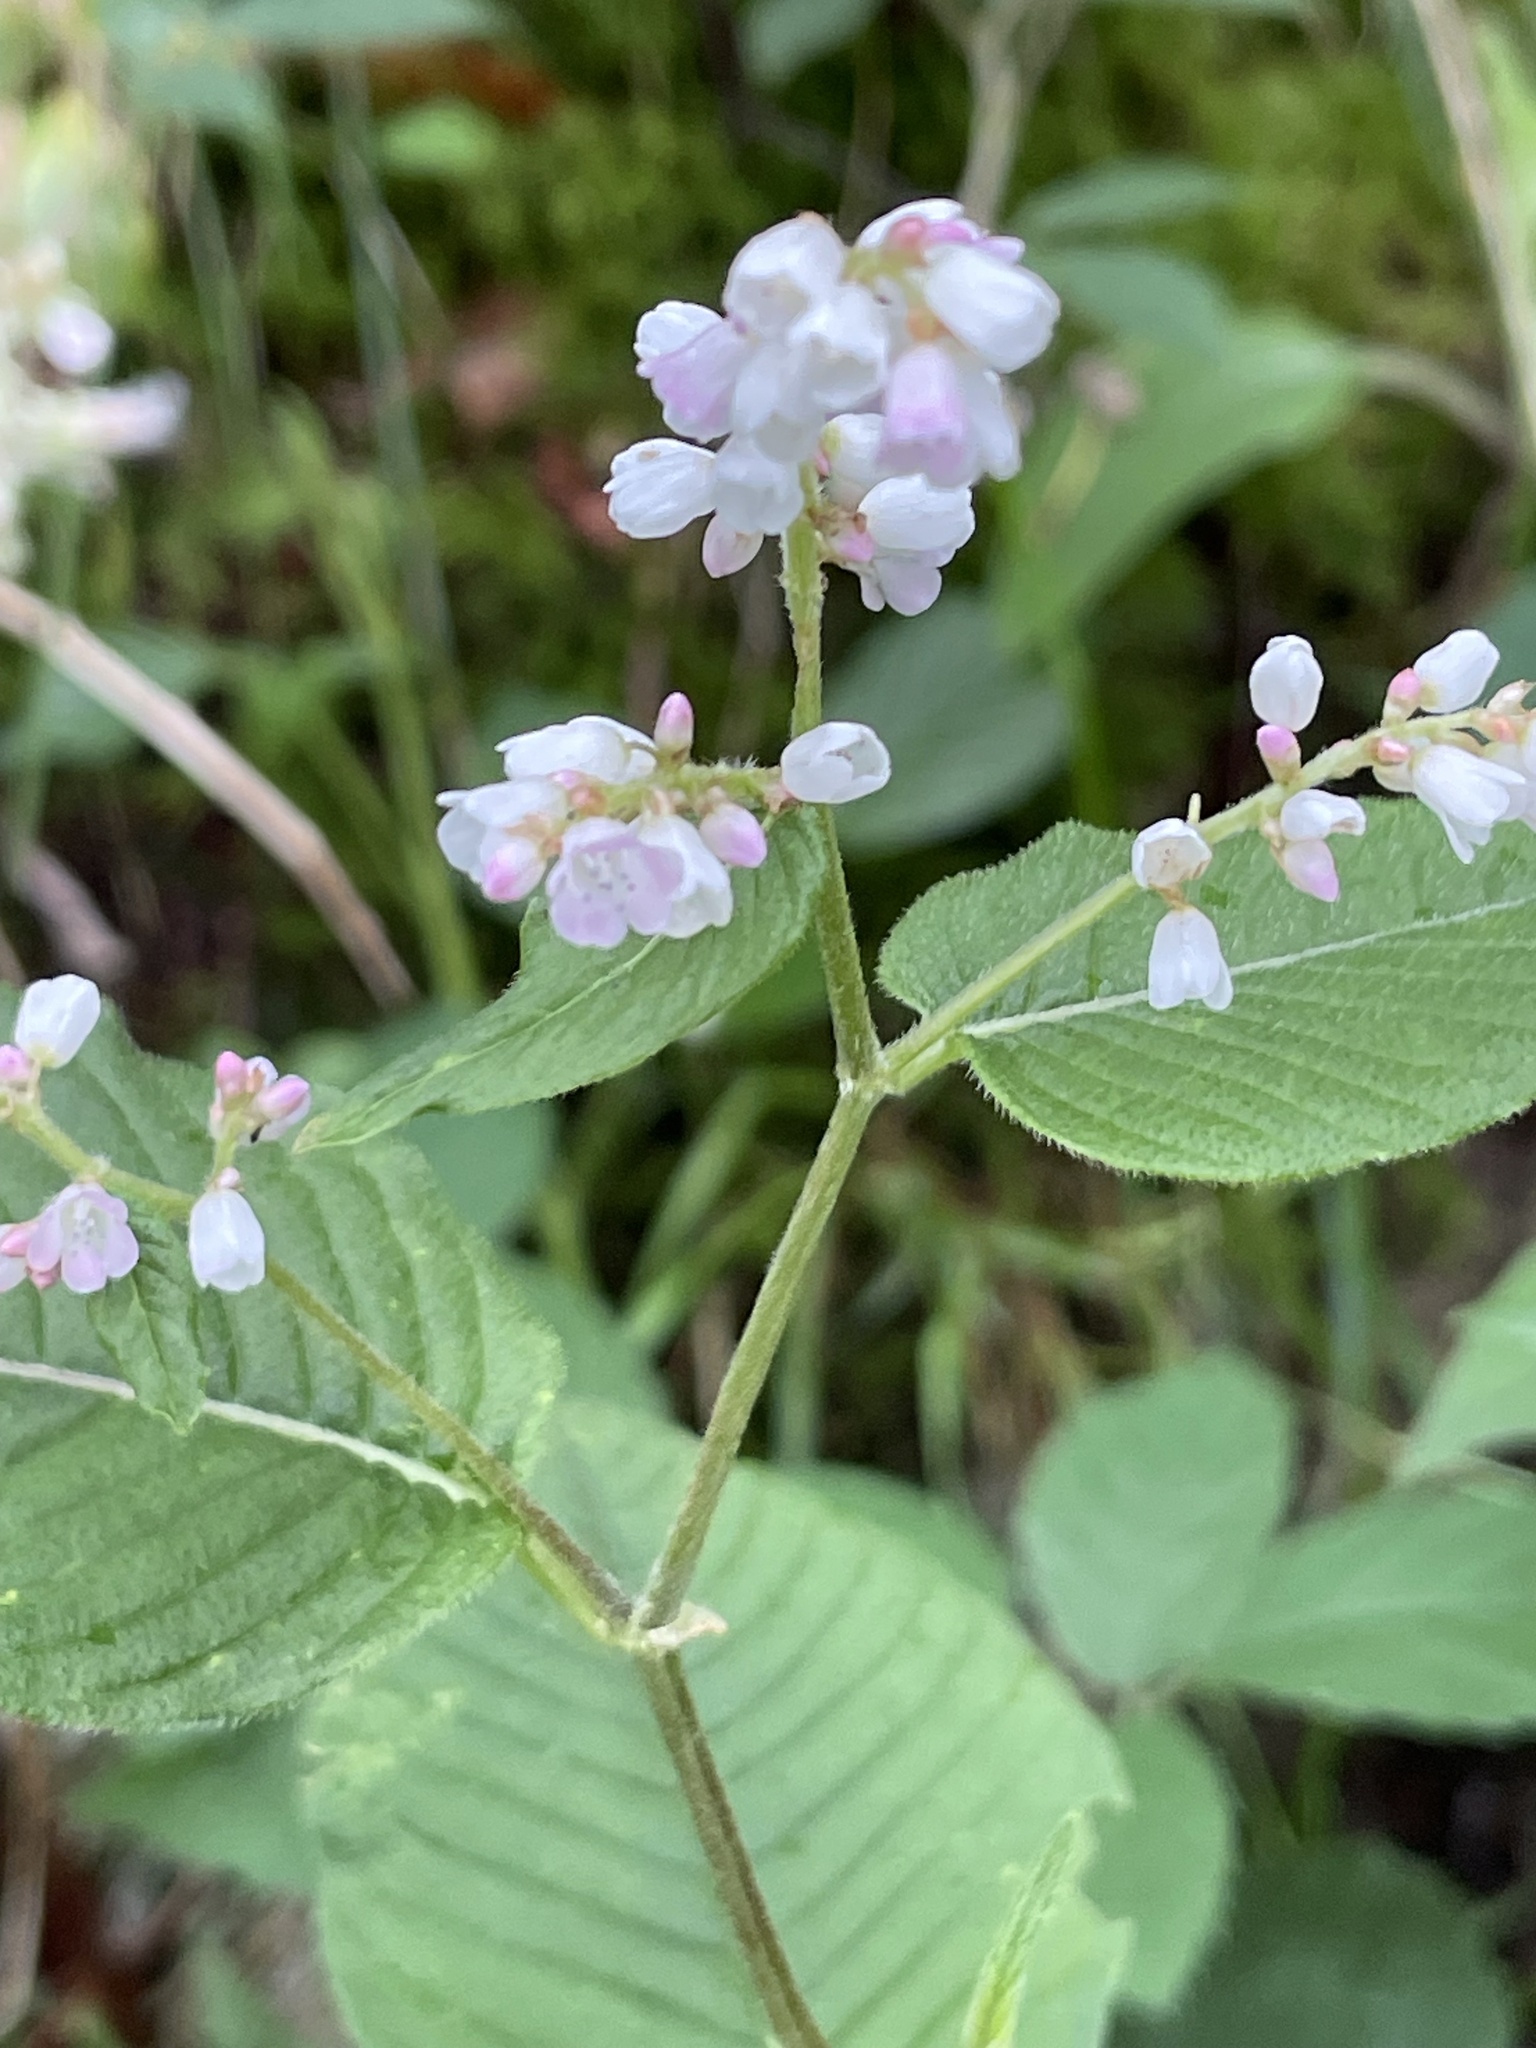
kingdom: Plantae
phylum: Tracheophyta
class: Magnoliopsida
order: Caryophyllales
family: Polygonaceae
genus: Koenigia
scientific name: Koenigia campanulata
